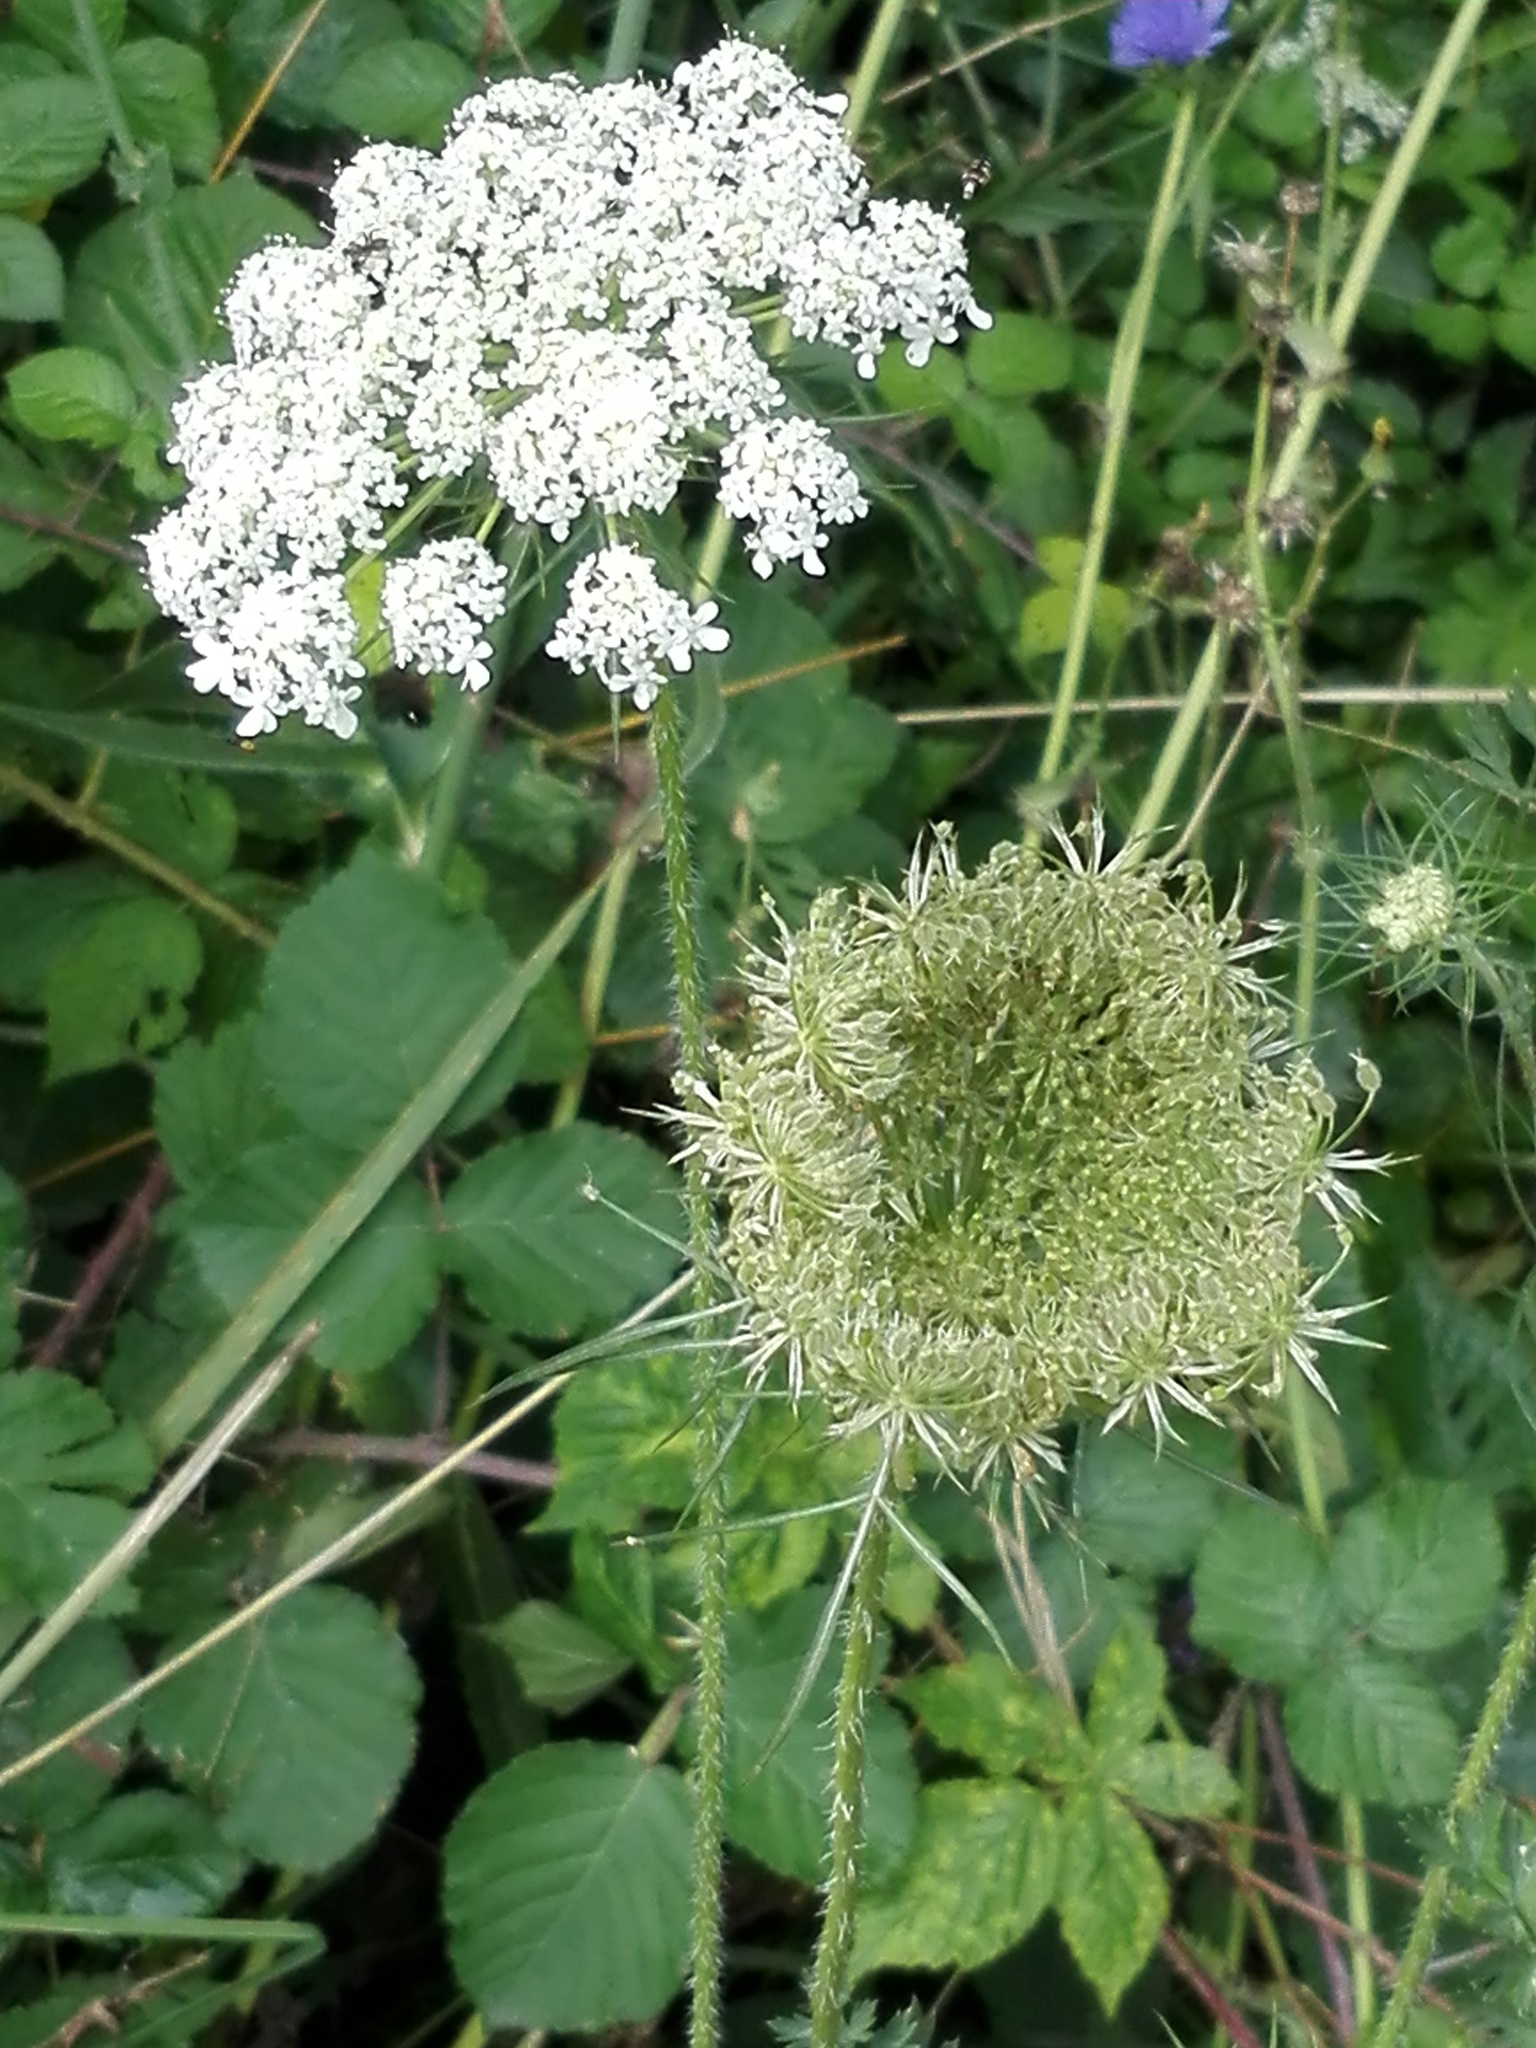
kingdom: Plantae
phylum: Tracheophyta
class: Magnoliopsida
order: Apiales
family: Apiaceae
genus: Daucus
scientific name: Daucus carota
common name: Wild carrot
